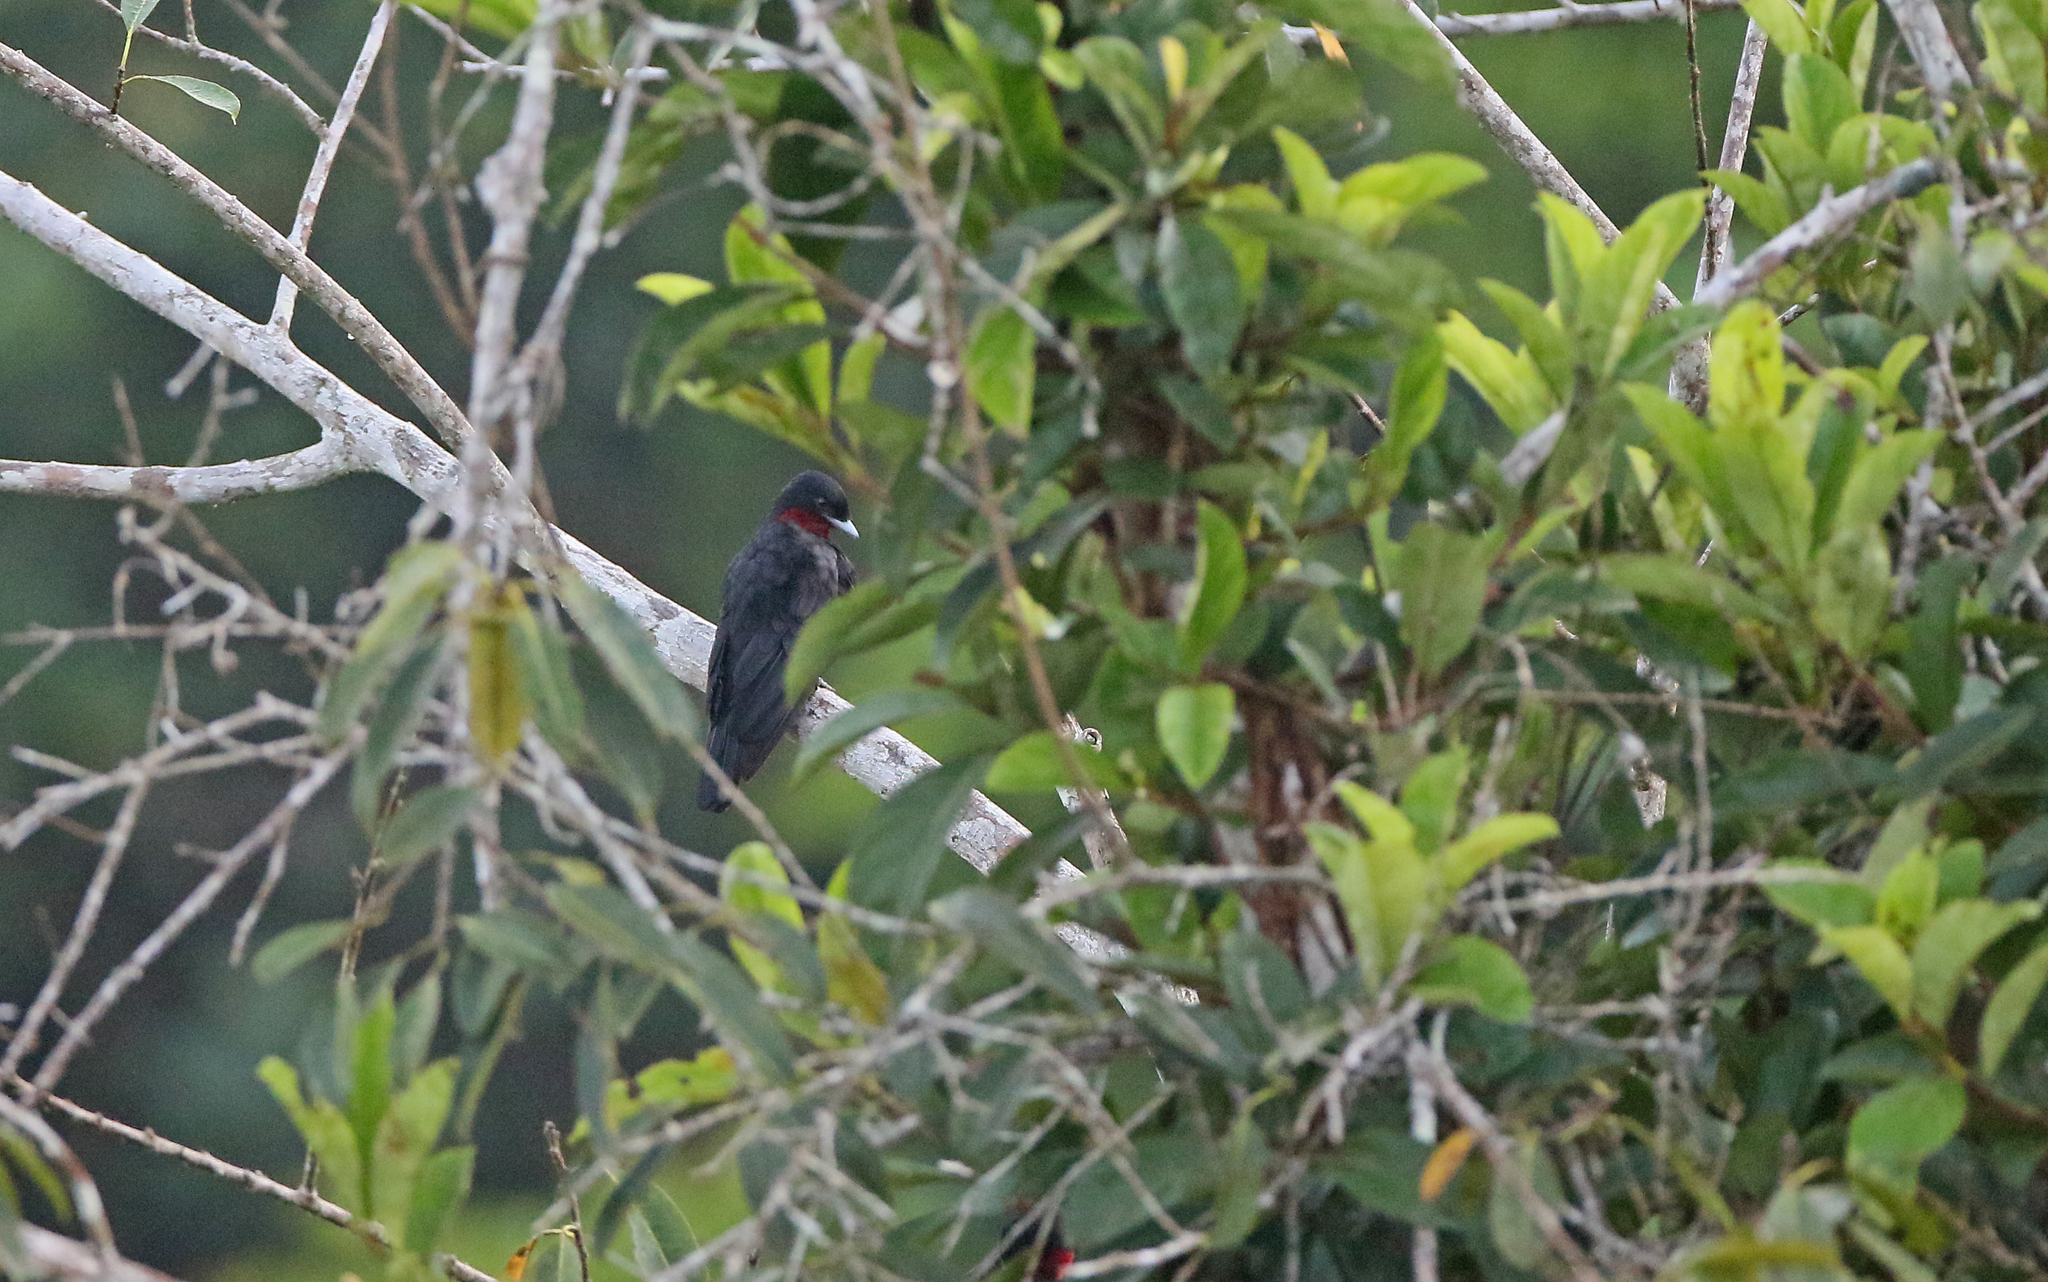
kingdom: Animalia
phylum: Chordata
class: Aves
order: Passeriformes
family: Cotingidae
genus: Querula
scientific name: Querula purpurata
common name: Purple-throated fruitcrow
